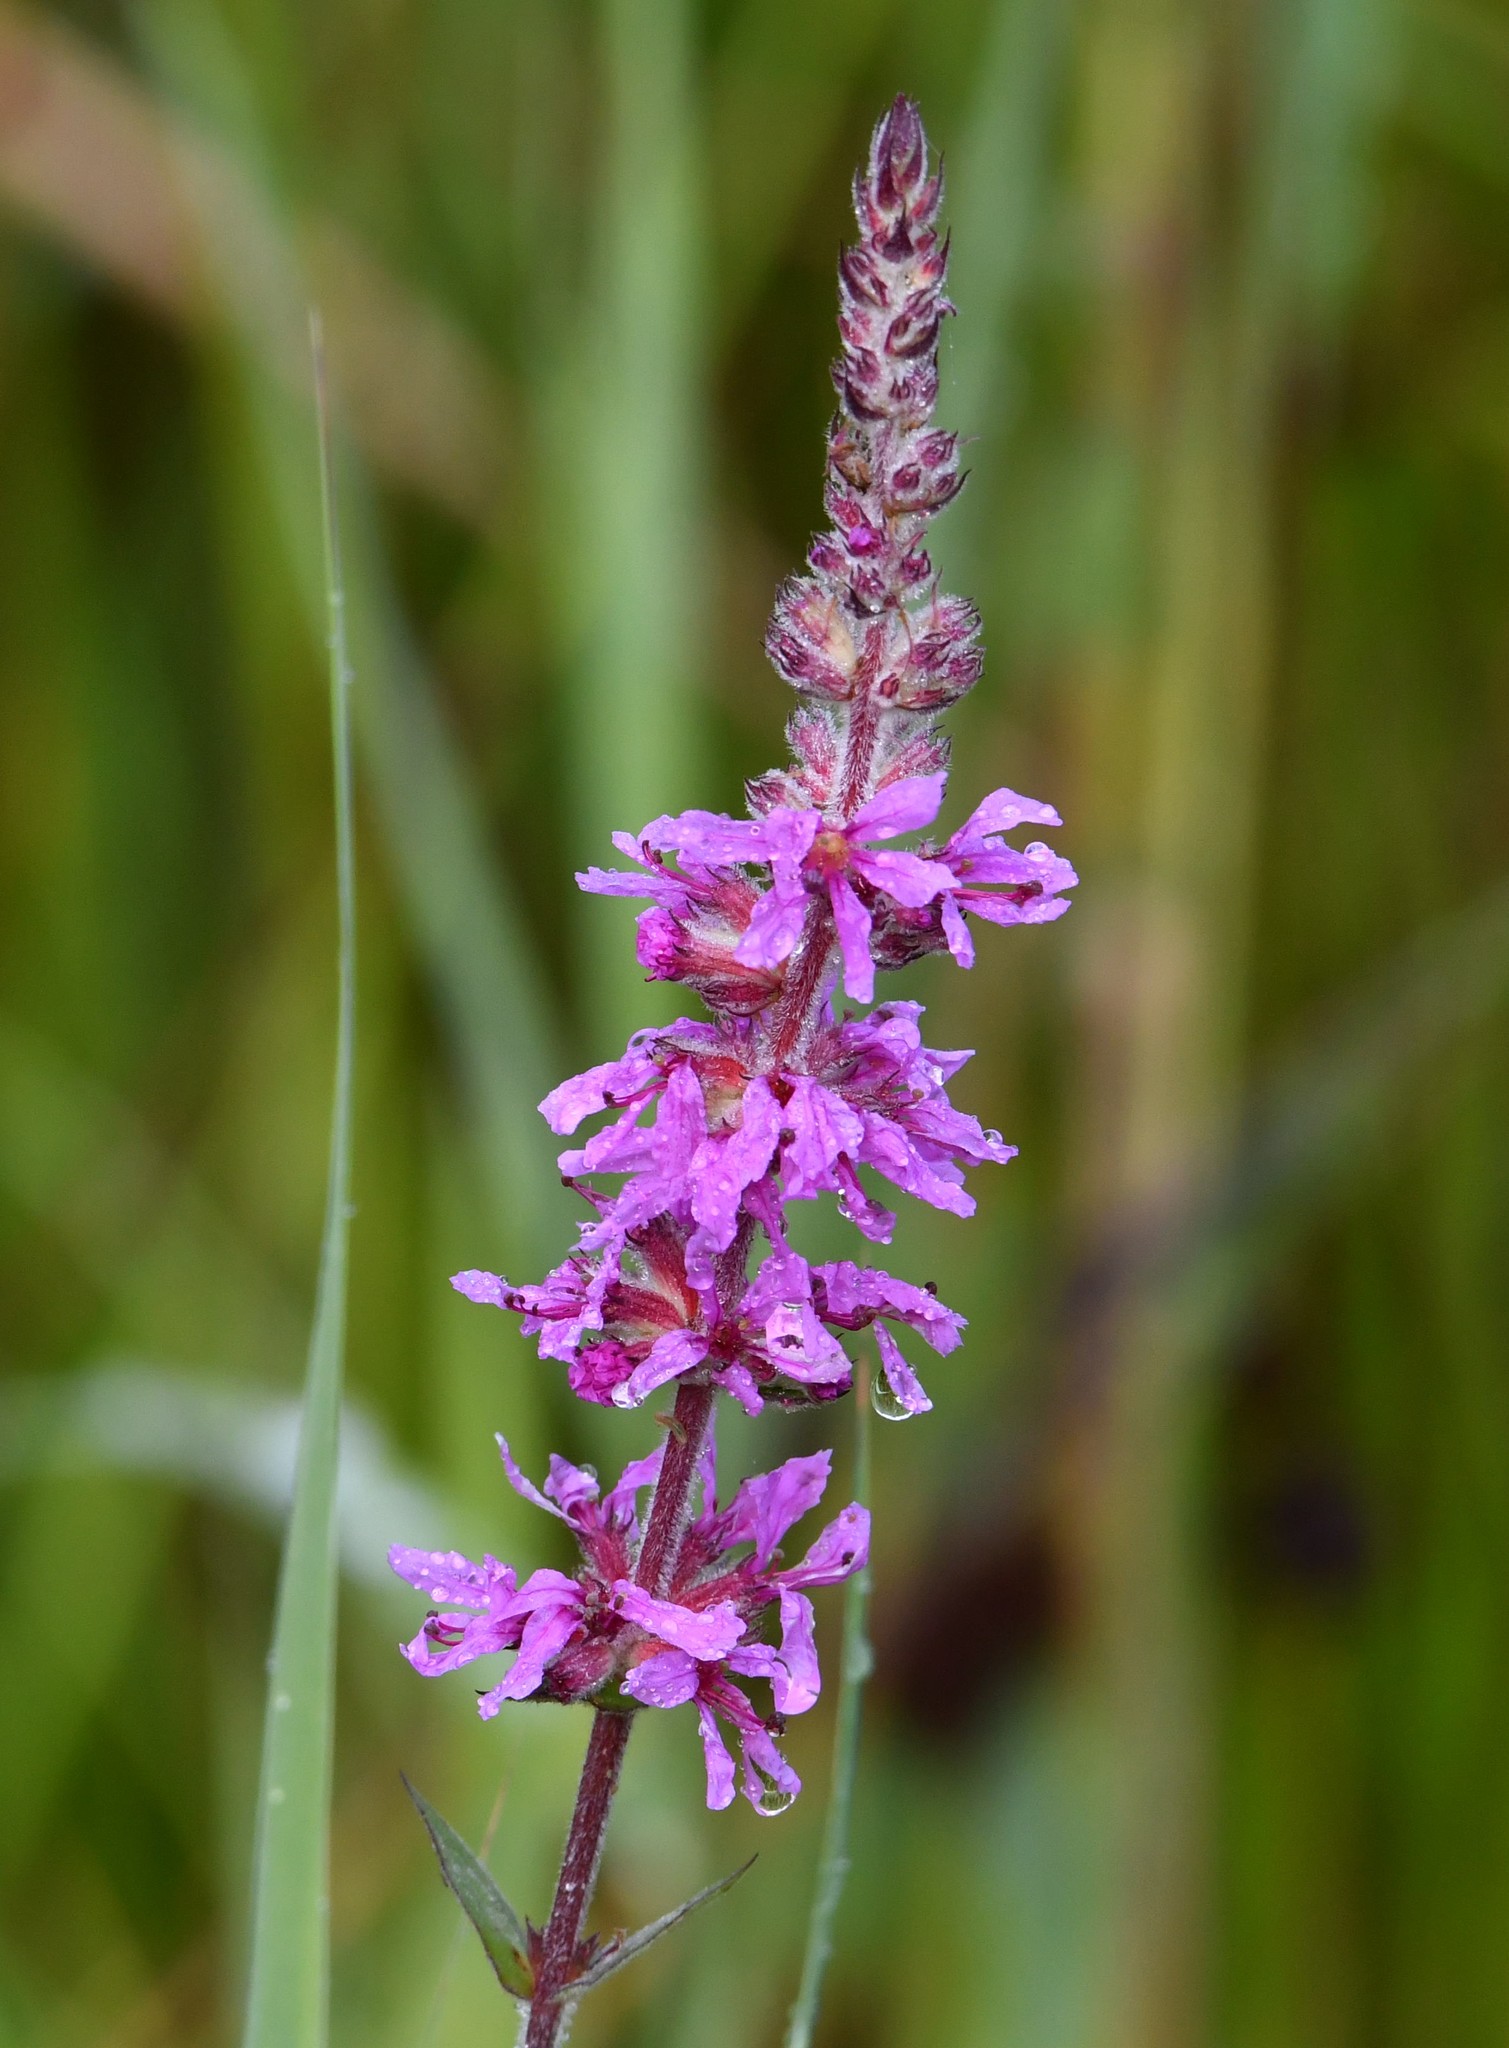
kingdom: Plantae
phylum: Tracheophyta
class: Magnoliopsida
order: Myrtales
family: Lythraceae
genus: Lythrum
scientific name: Lythrum salicaria
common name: Purple loosestrife
